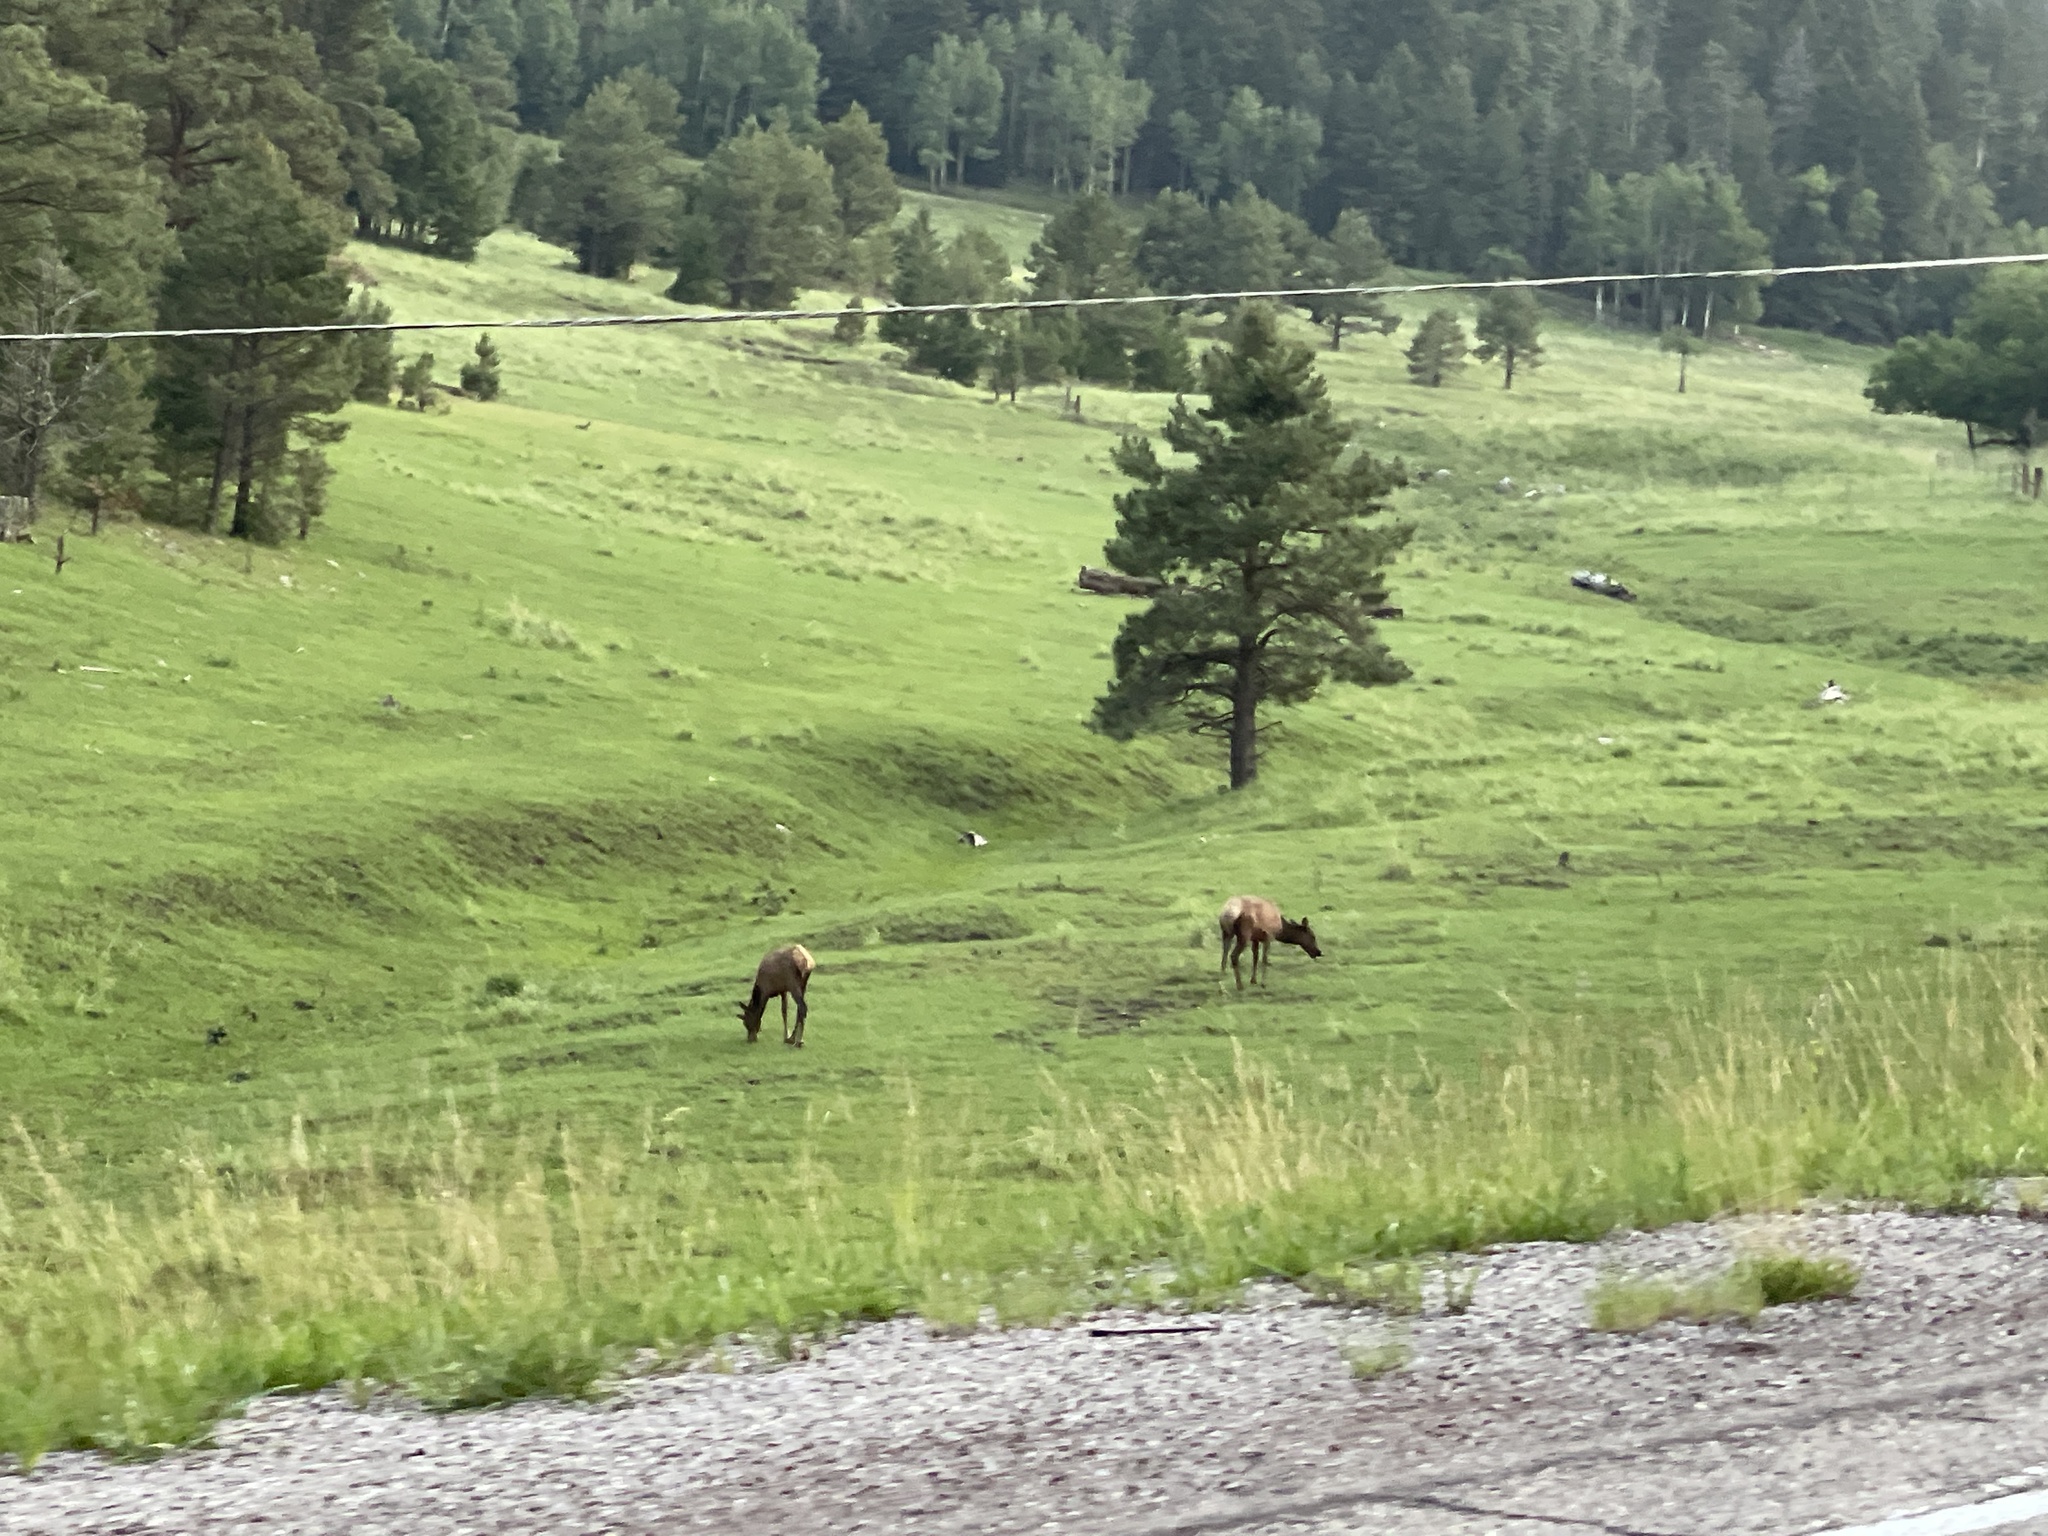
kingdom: Animalia
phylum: Chordata
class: Mammalia
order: Artiodactyla
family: Cervidae
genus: Cervus
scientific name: Cervus elaphus
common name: Red deer
